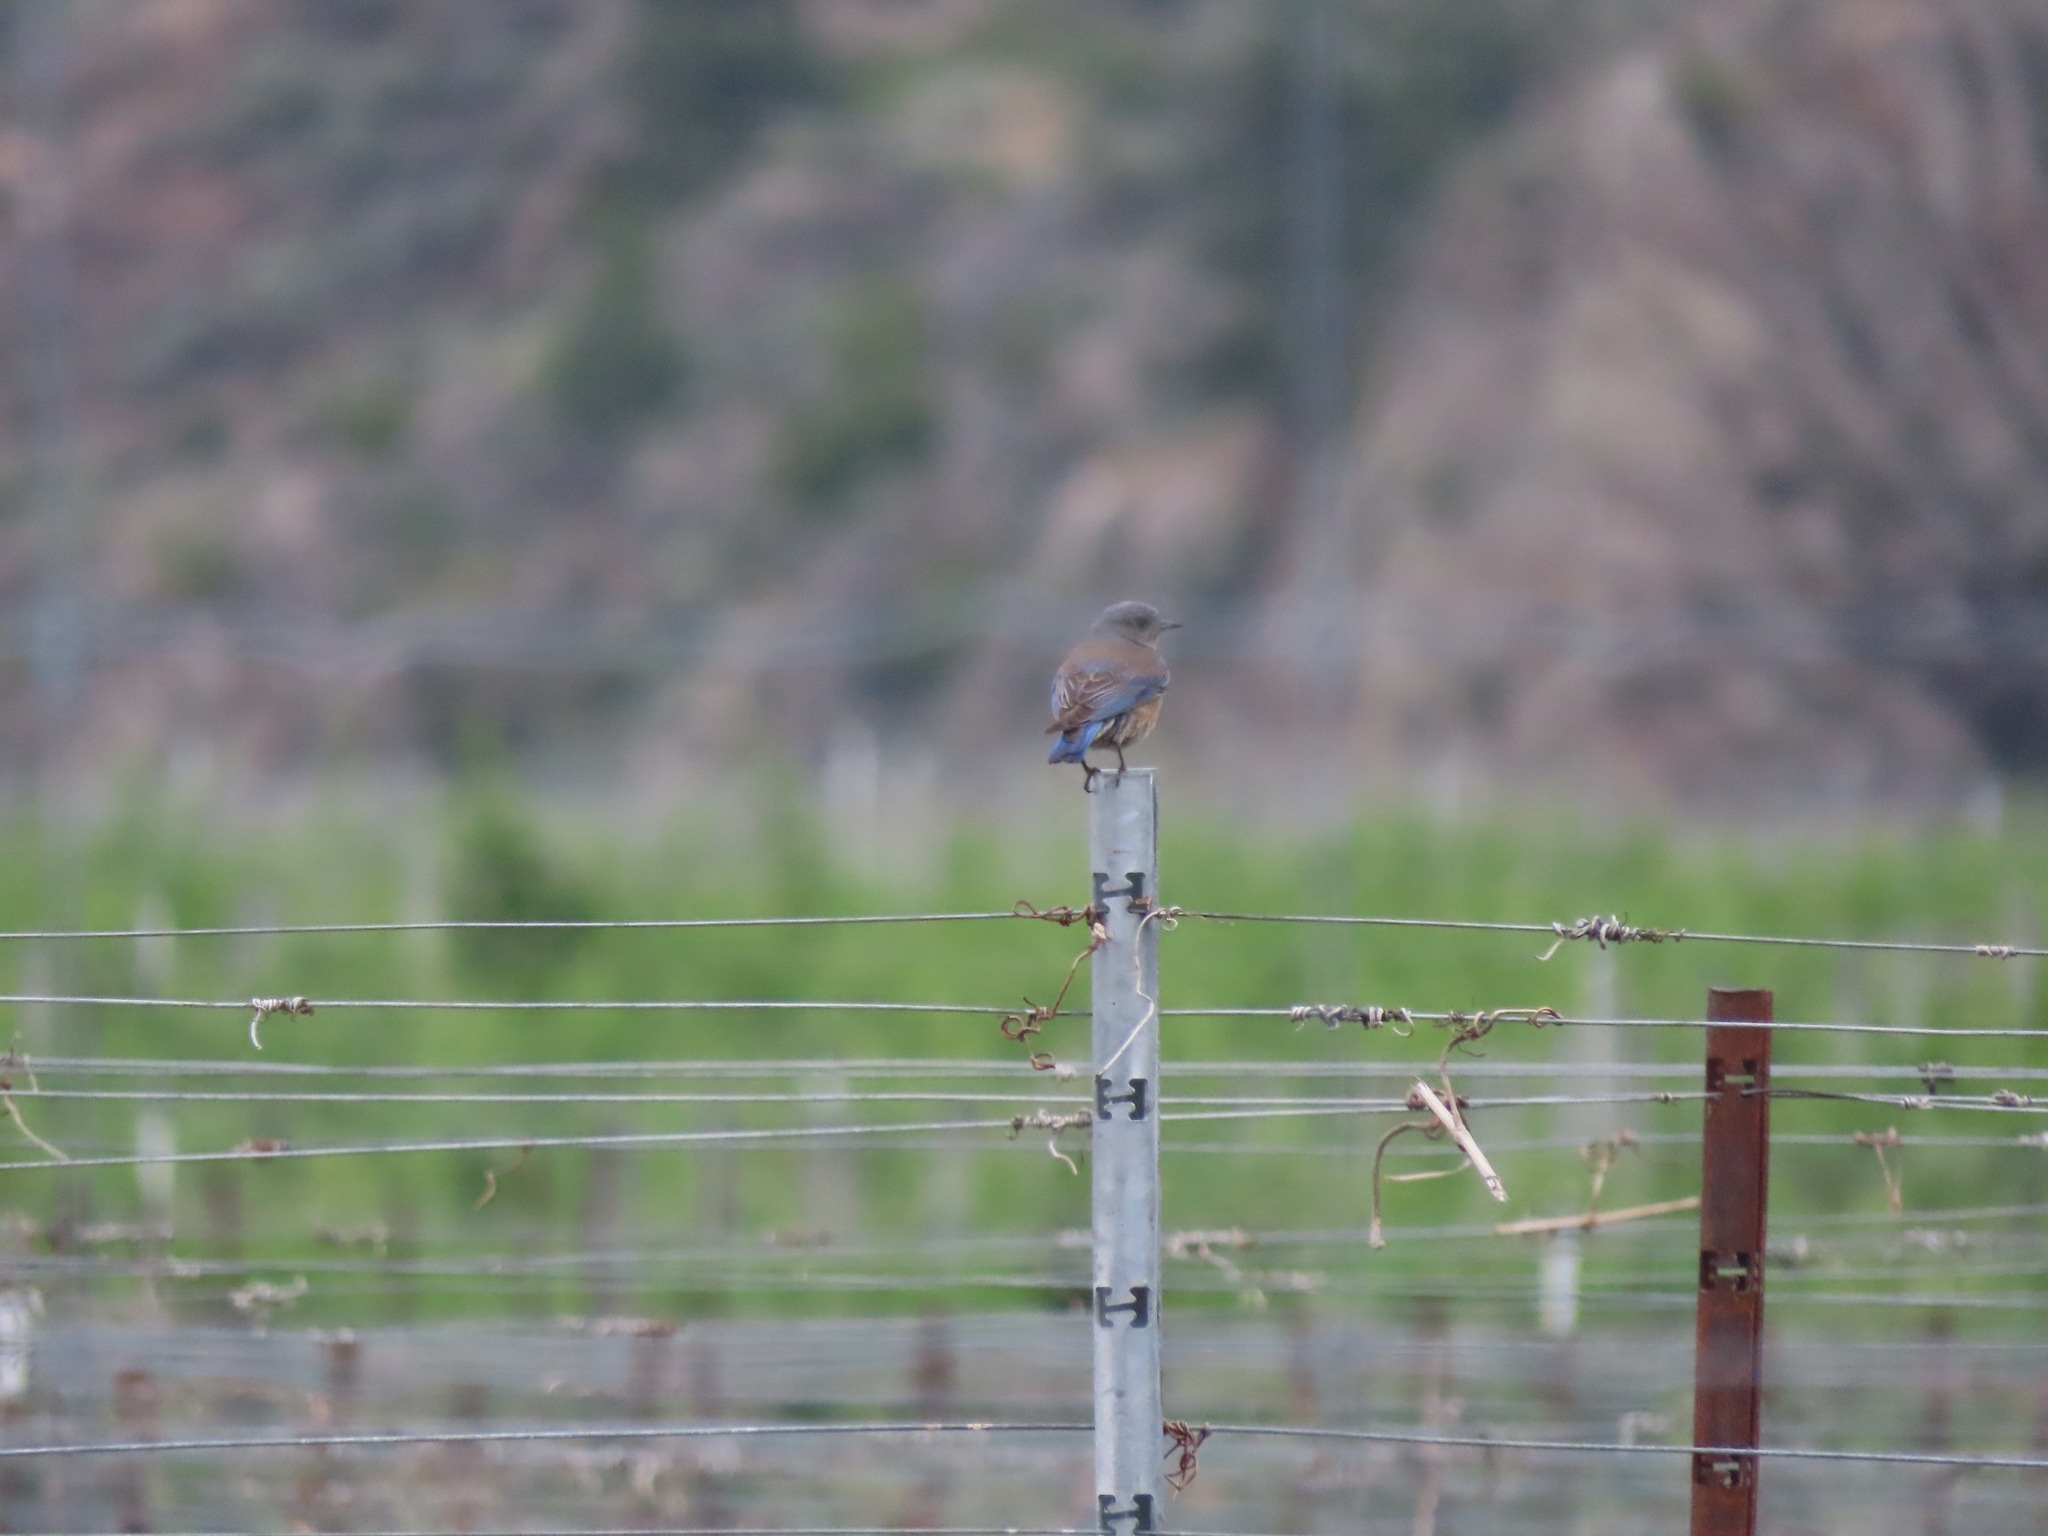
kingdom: Animalia
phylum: Chordata
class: Aves
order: Passeriformes
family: Turdidae
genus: Sialia
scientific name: Sialia mexicana
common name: Western bluebird
